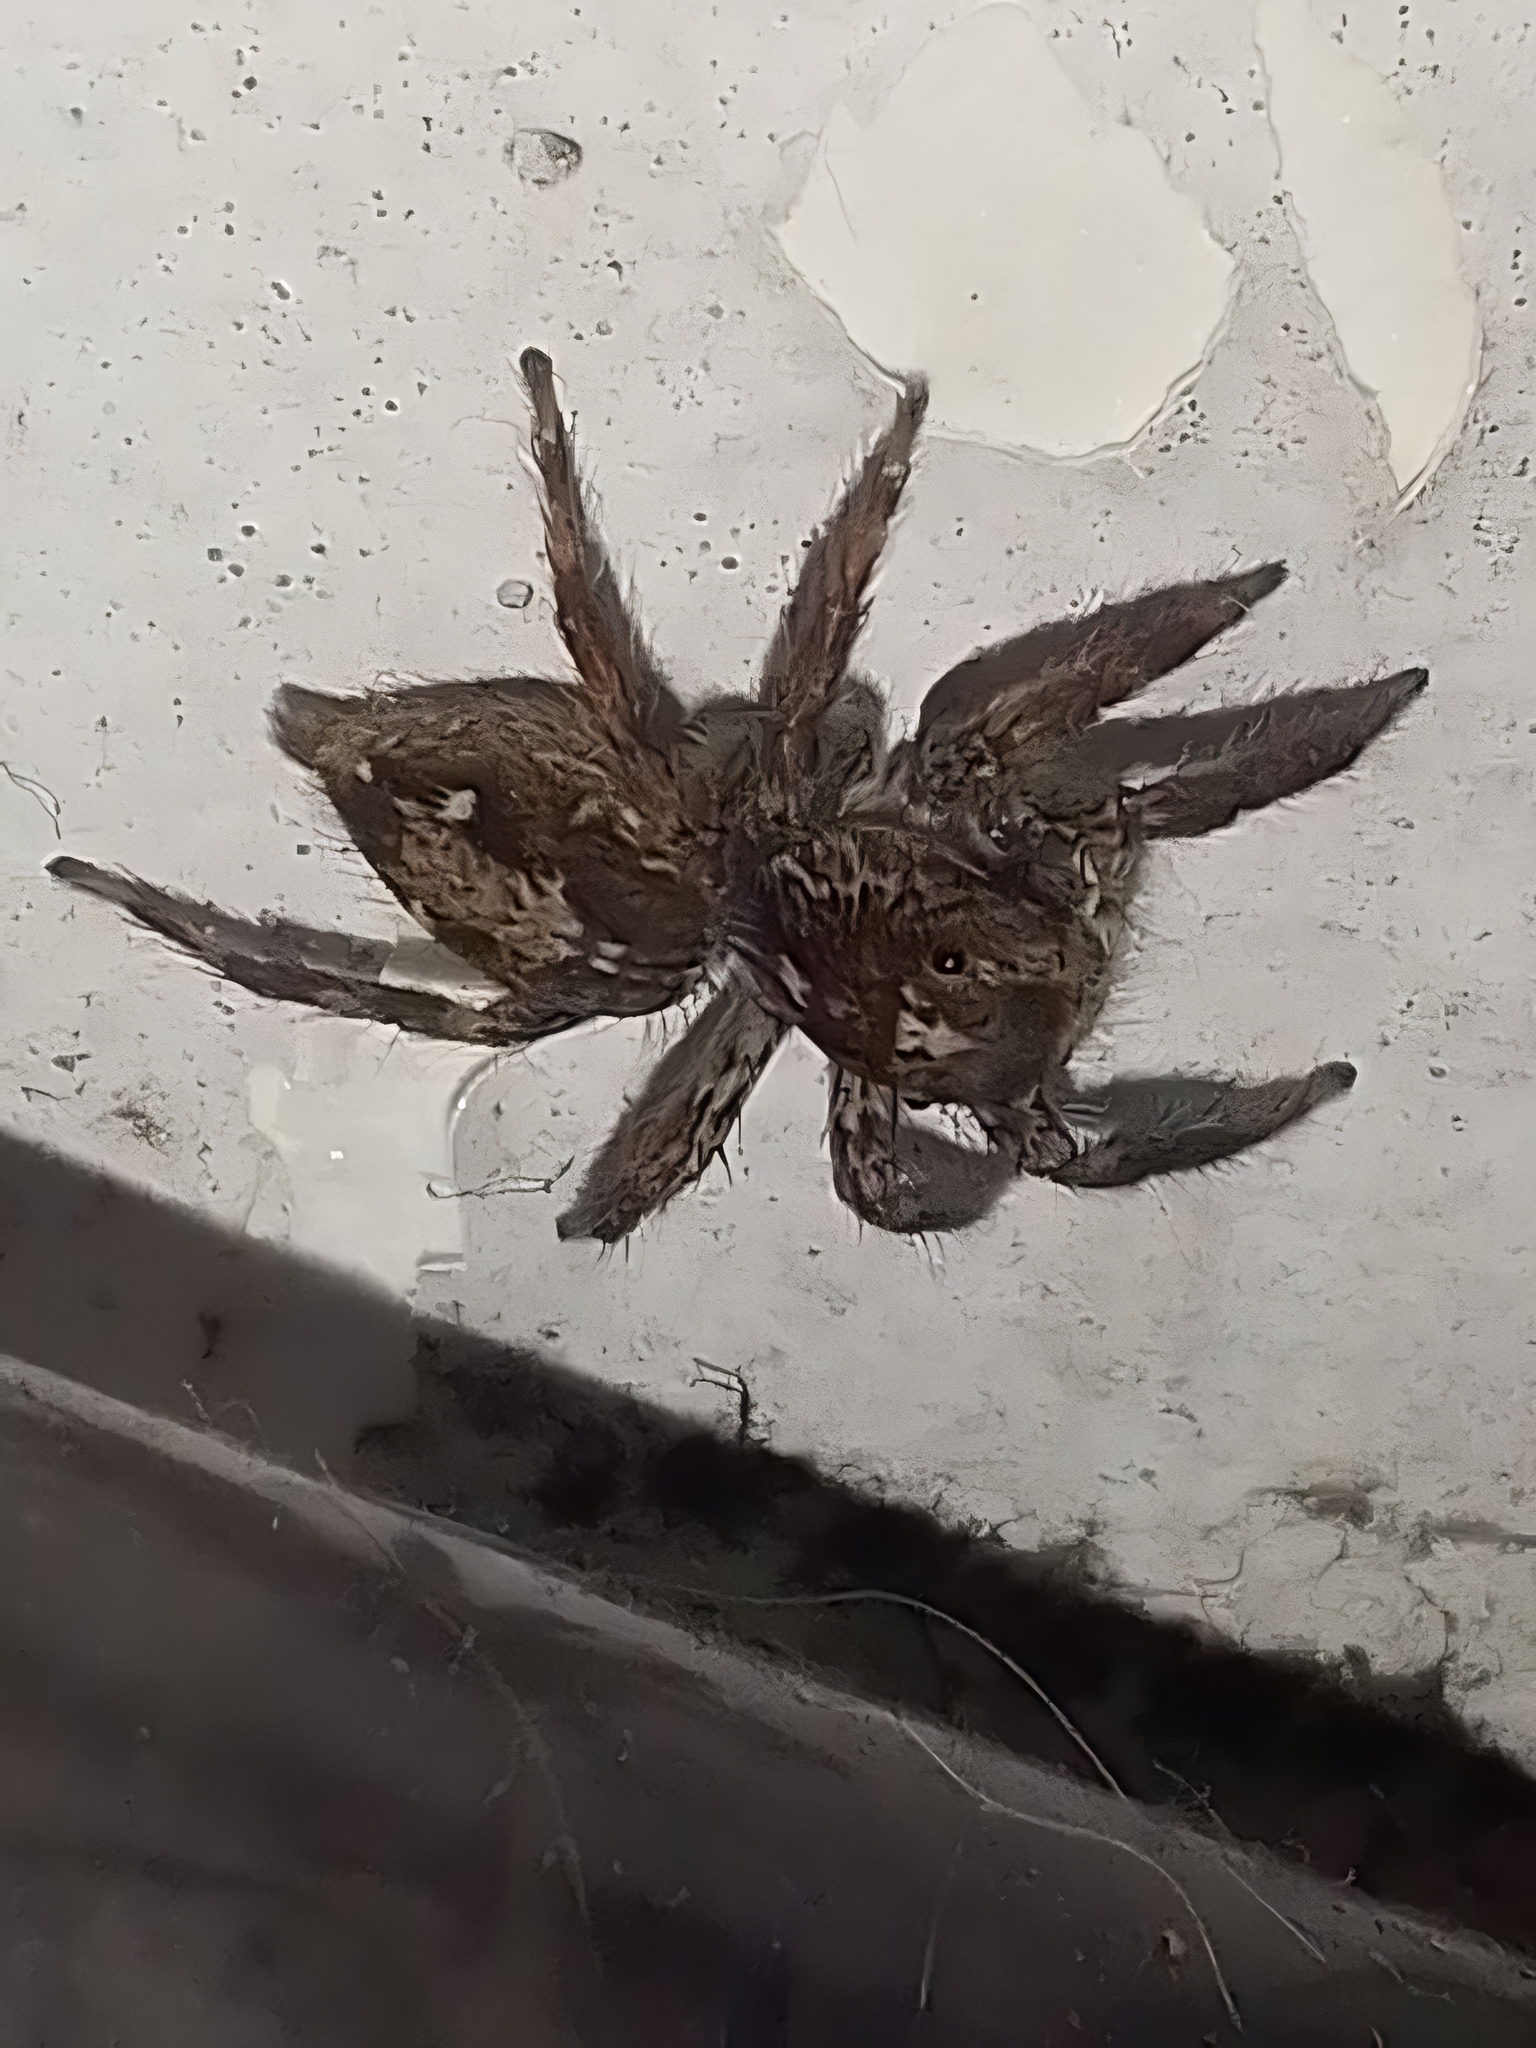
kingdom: Animalia
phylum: Arthropoda
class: Arachnida
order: Araneae
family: Salticidae
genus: Plexippus
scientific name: Plexippus paykulli
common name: Pantropical jumper
